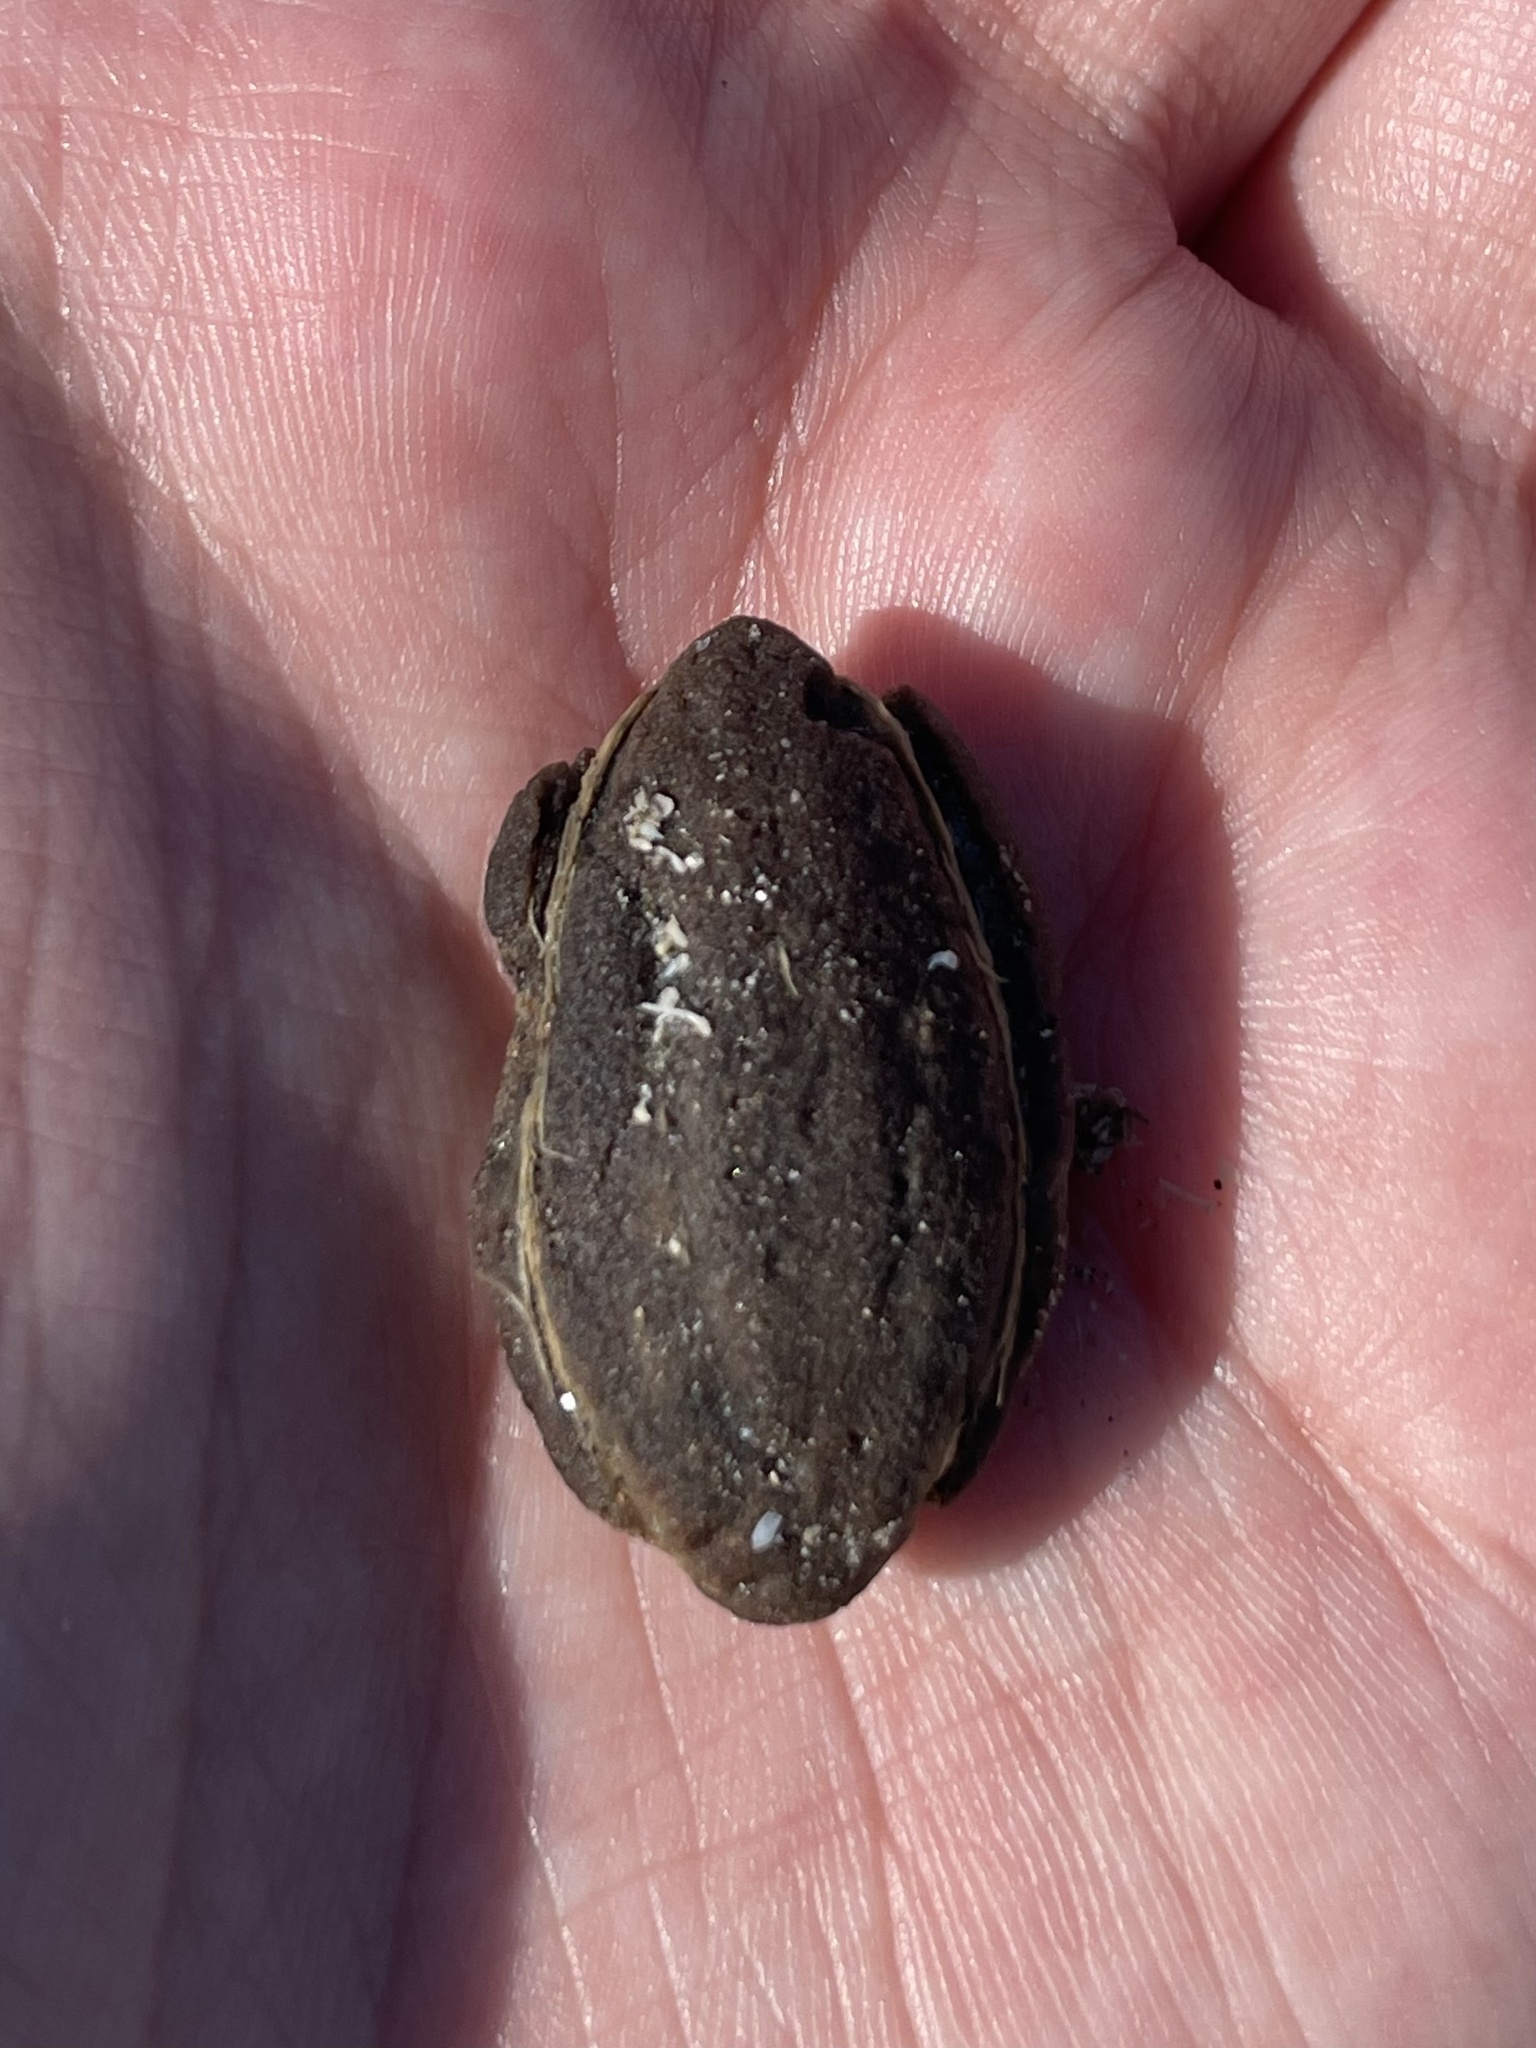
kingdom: Plantae
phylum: Tracheophyta
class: Magnoliopsida
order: Myrtales
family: Combretaceae
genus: Terminalia
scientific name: Terminalia catappa
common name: Tropical almond
